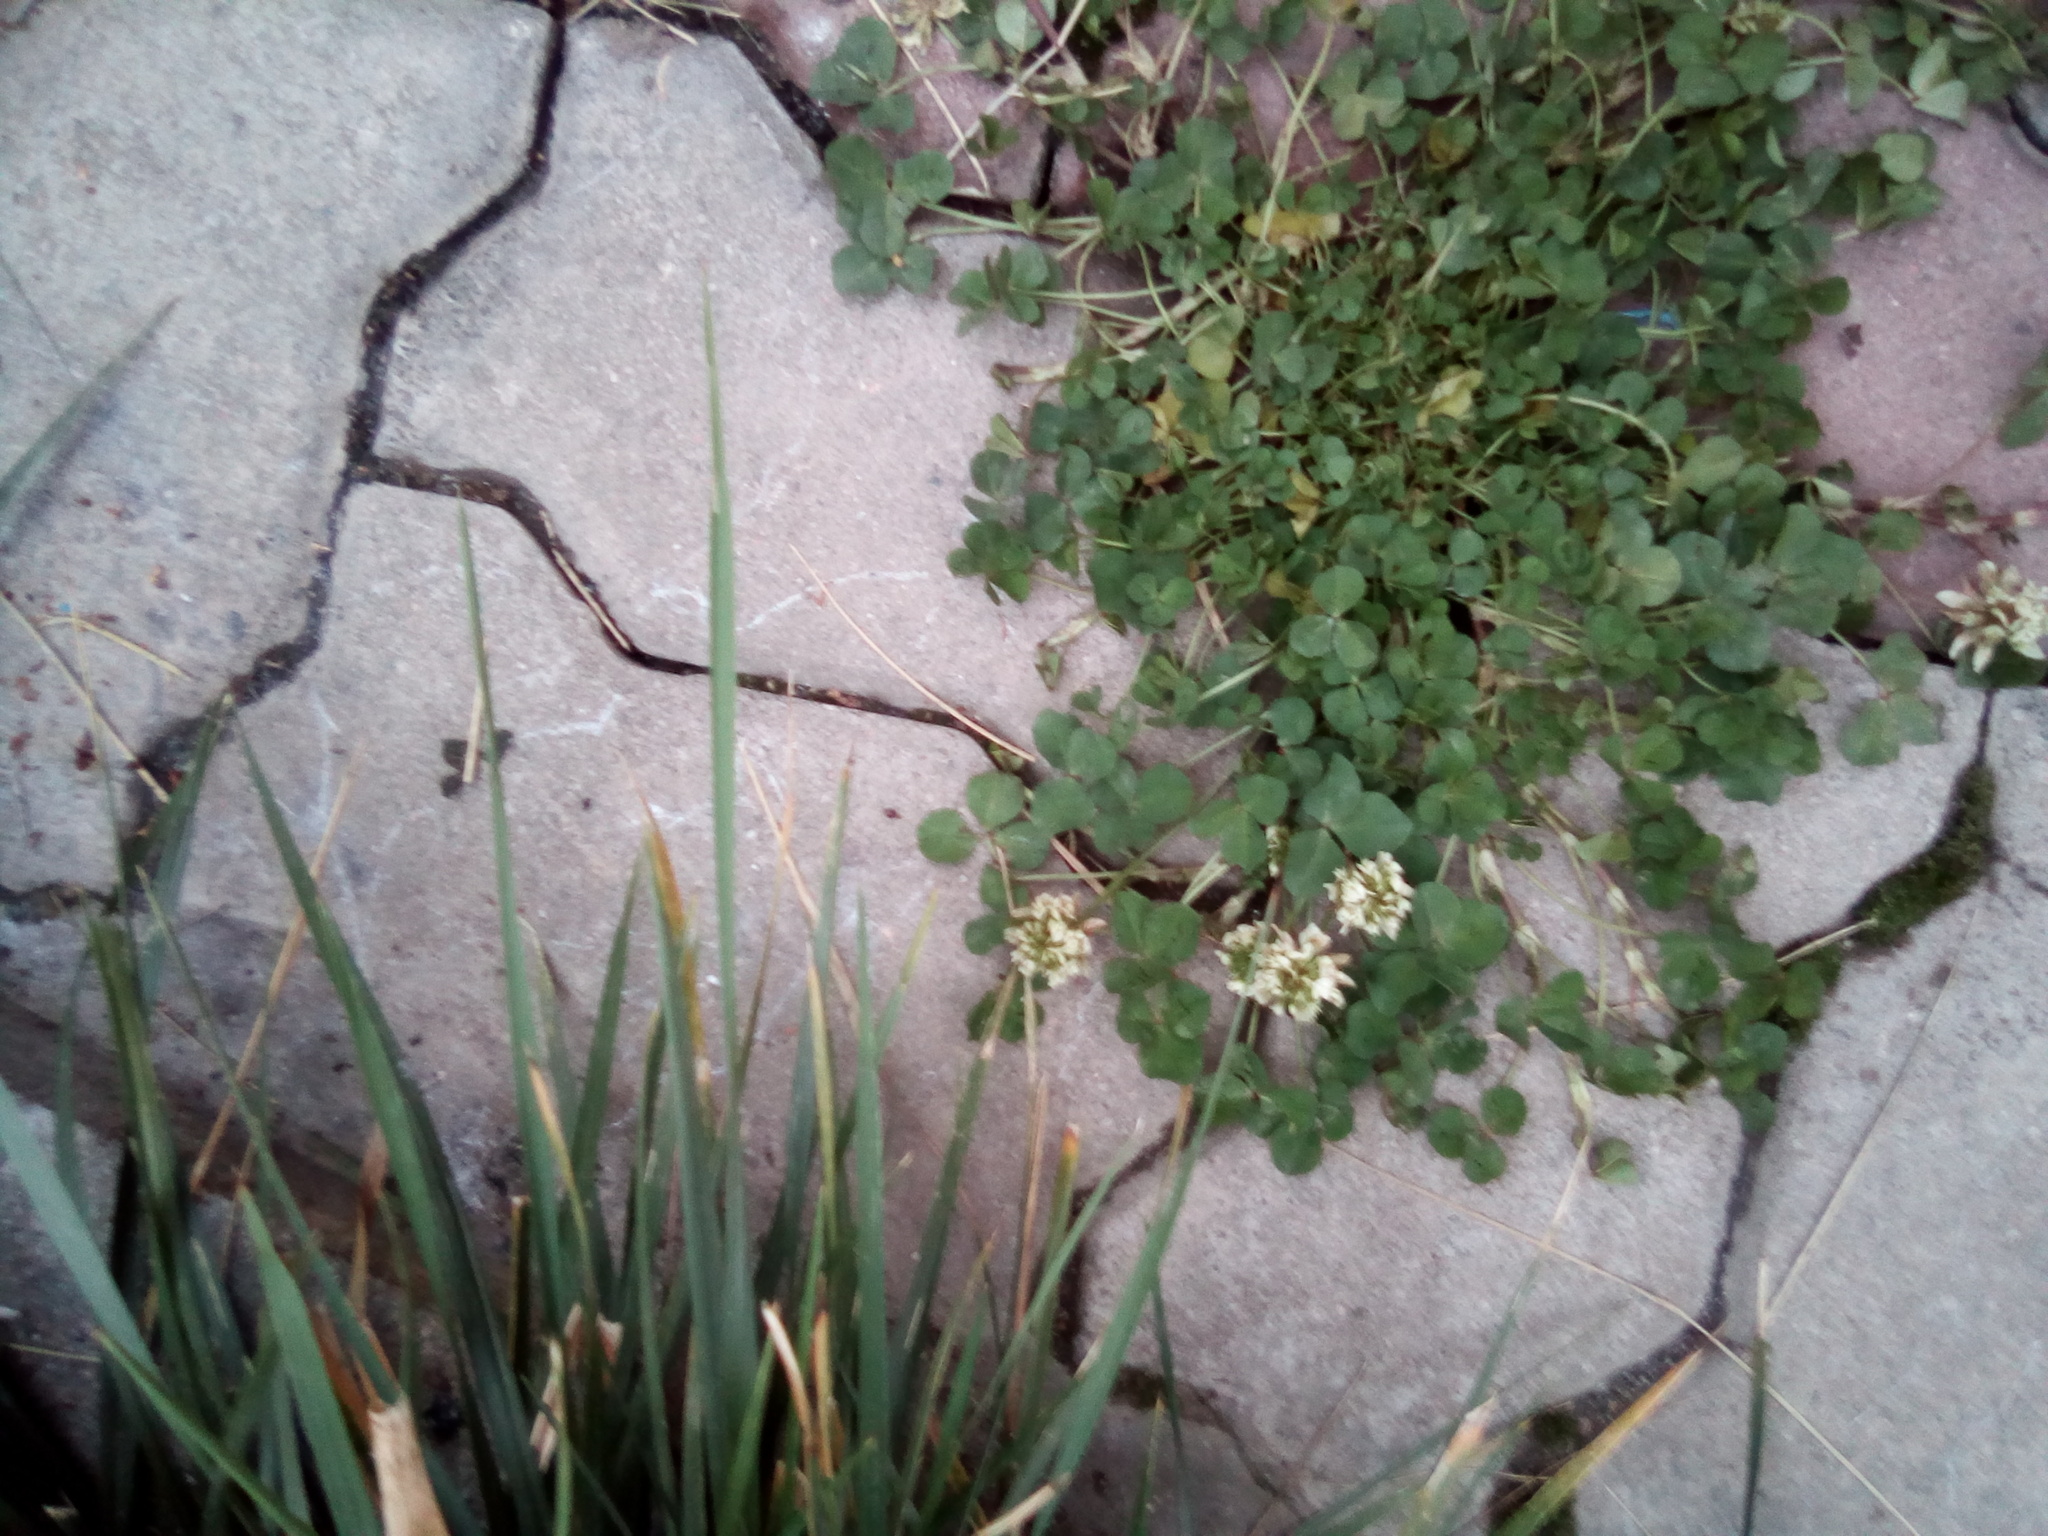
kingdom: Plantae
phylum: Tracheophyta
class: Magnoliopsida
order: Fabales
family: Fabaceae
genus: Trifolium
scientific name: Trifolium repens
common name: White clover
